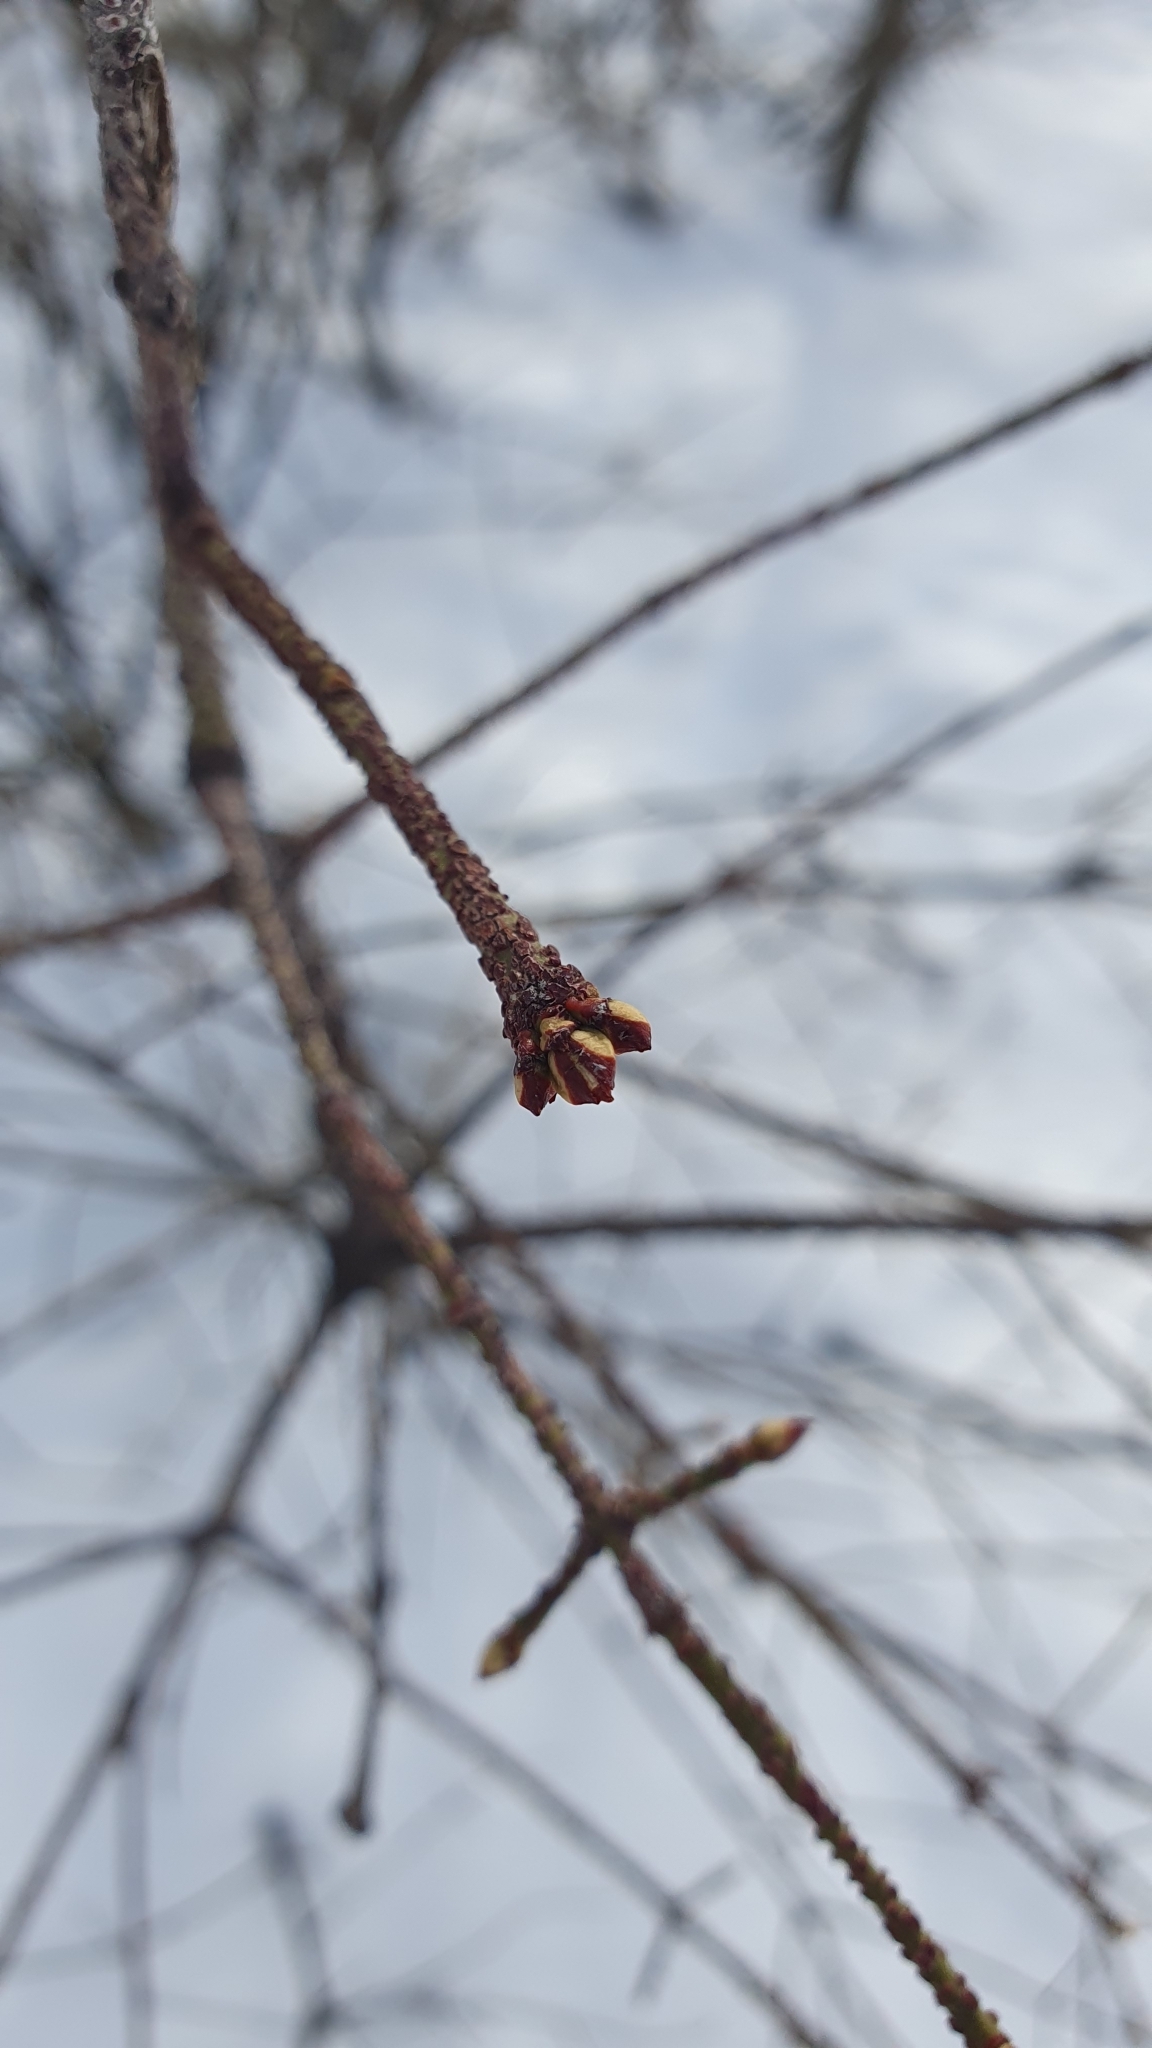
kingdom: Plantae
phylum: Tracheophyta
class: Magnoliopsida
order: Celastrales
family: Celastraceae
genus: Euonymus
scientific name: Euonymus verrucosus
